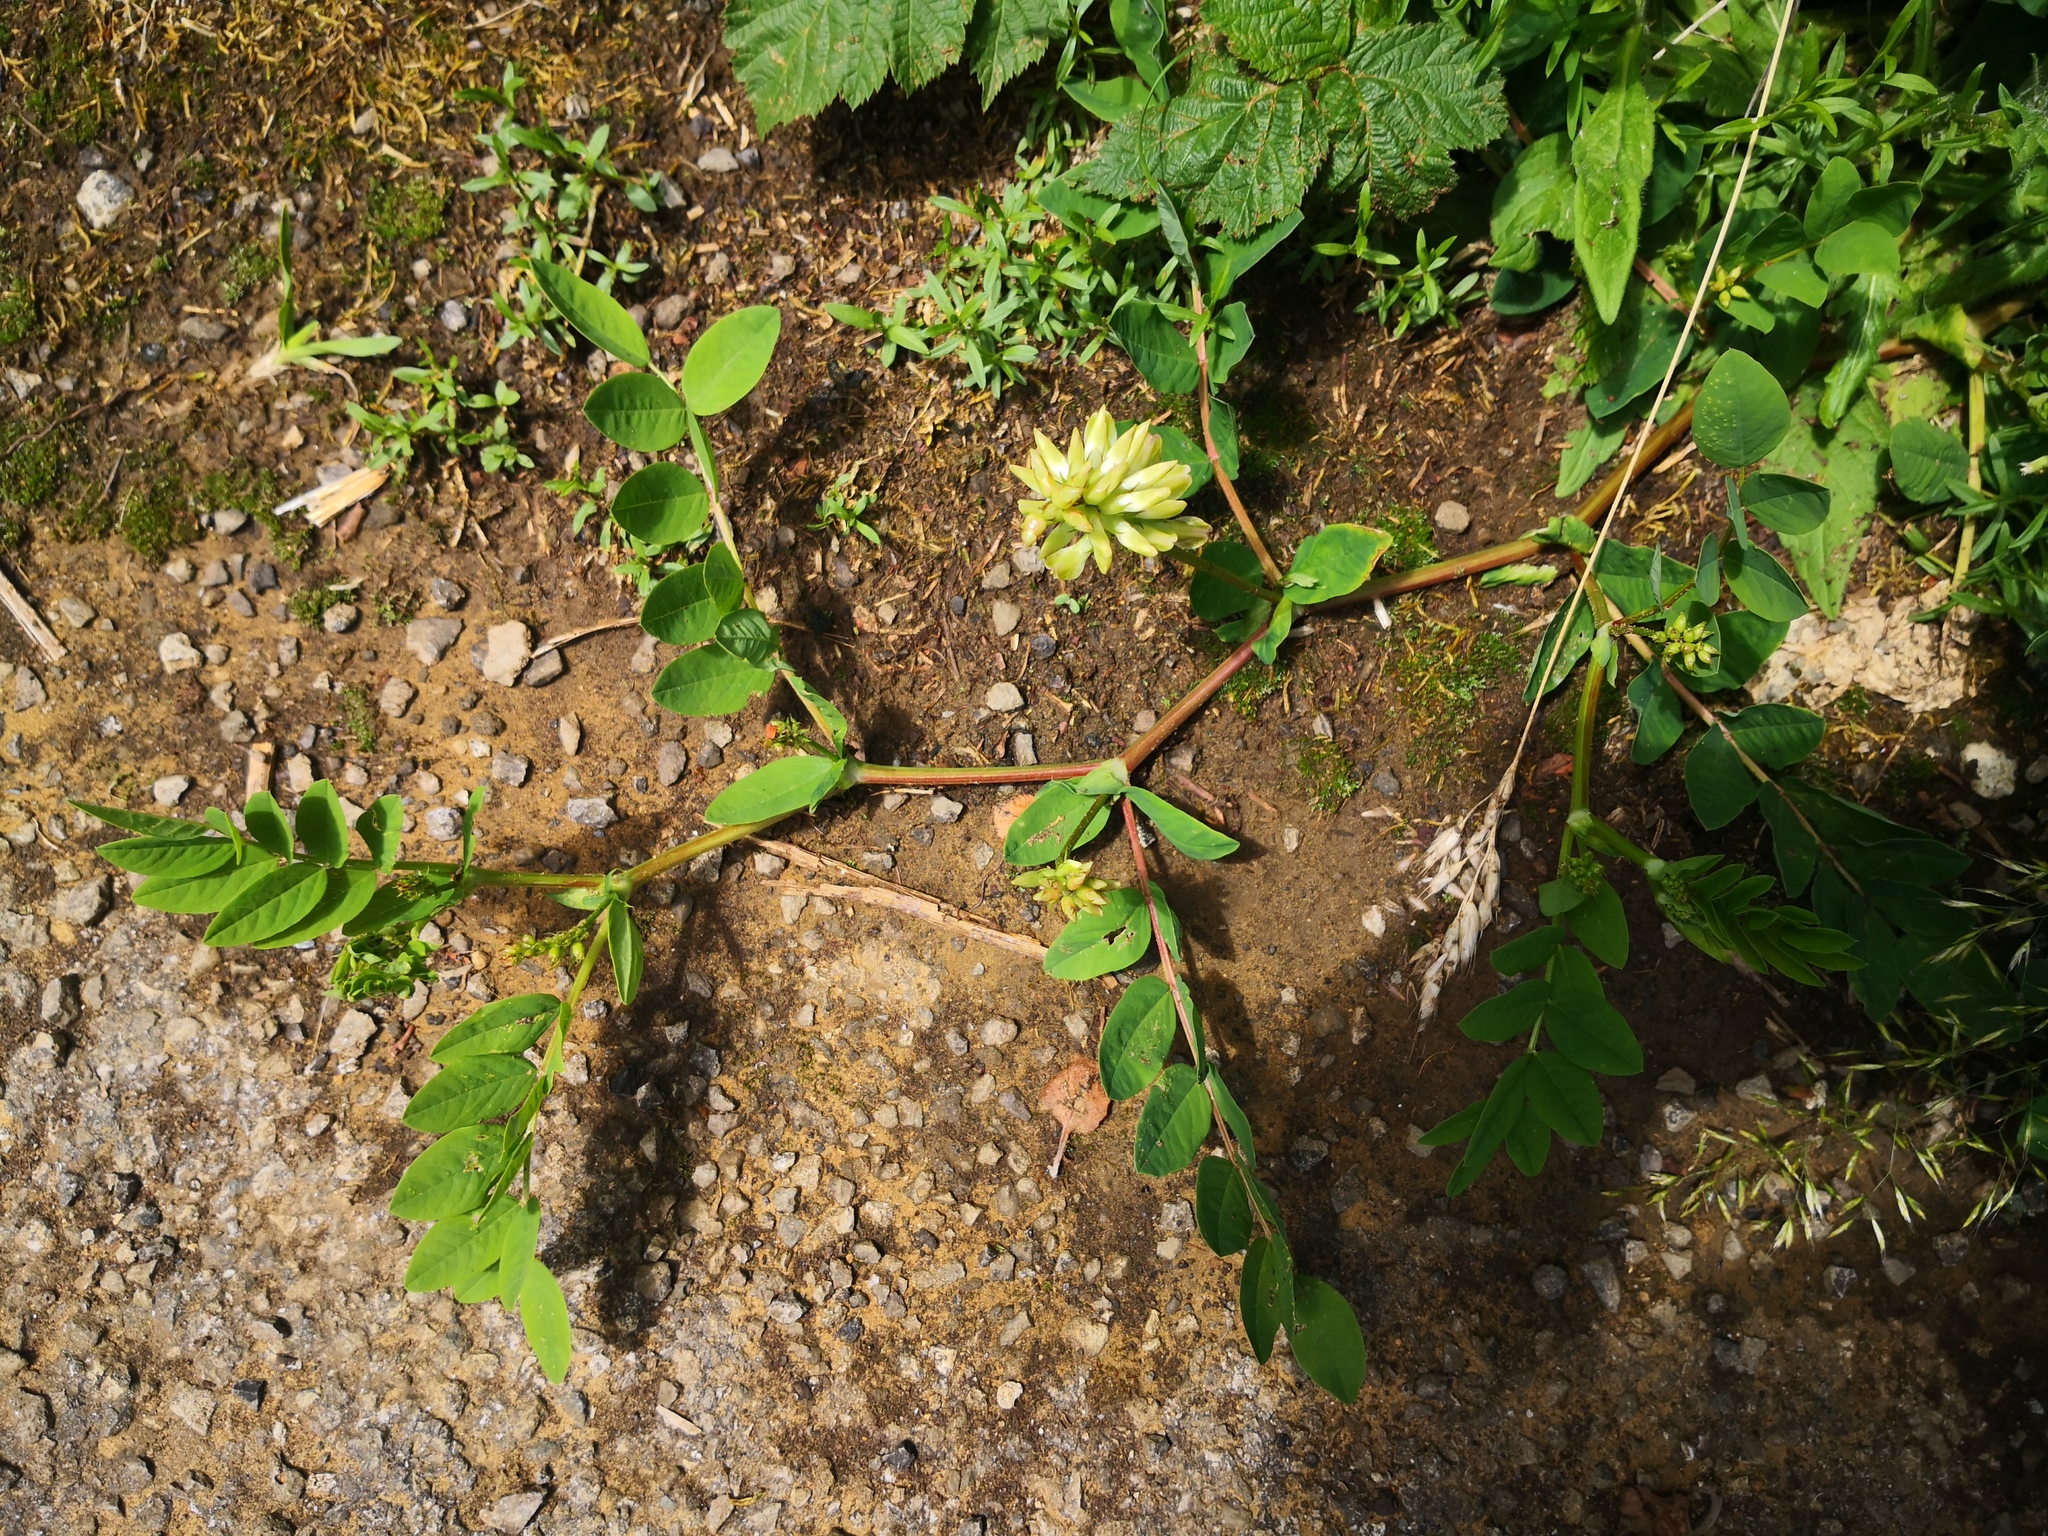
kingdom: Plantae
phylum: Tracheophyta
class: Magnoliopsida
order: Fabales
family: Fabaceae
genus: Astragalus
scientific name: Astragalus glycyphyllos
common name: Wild liquorice
